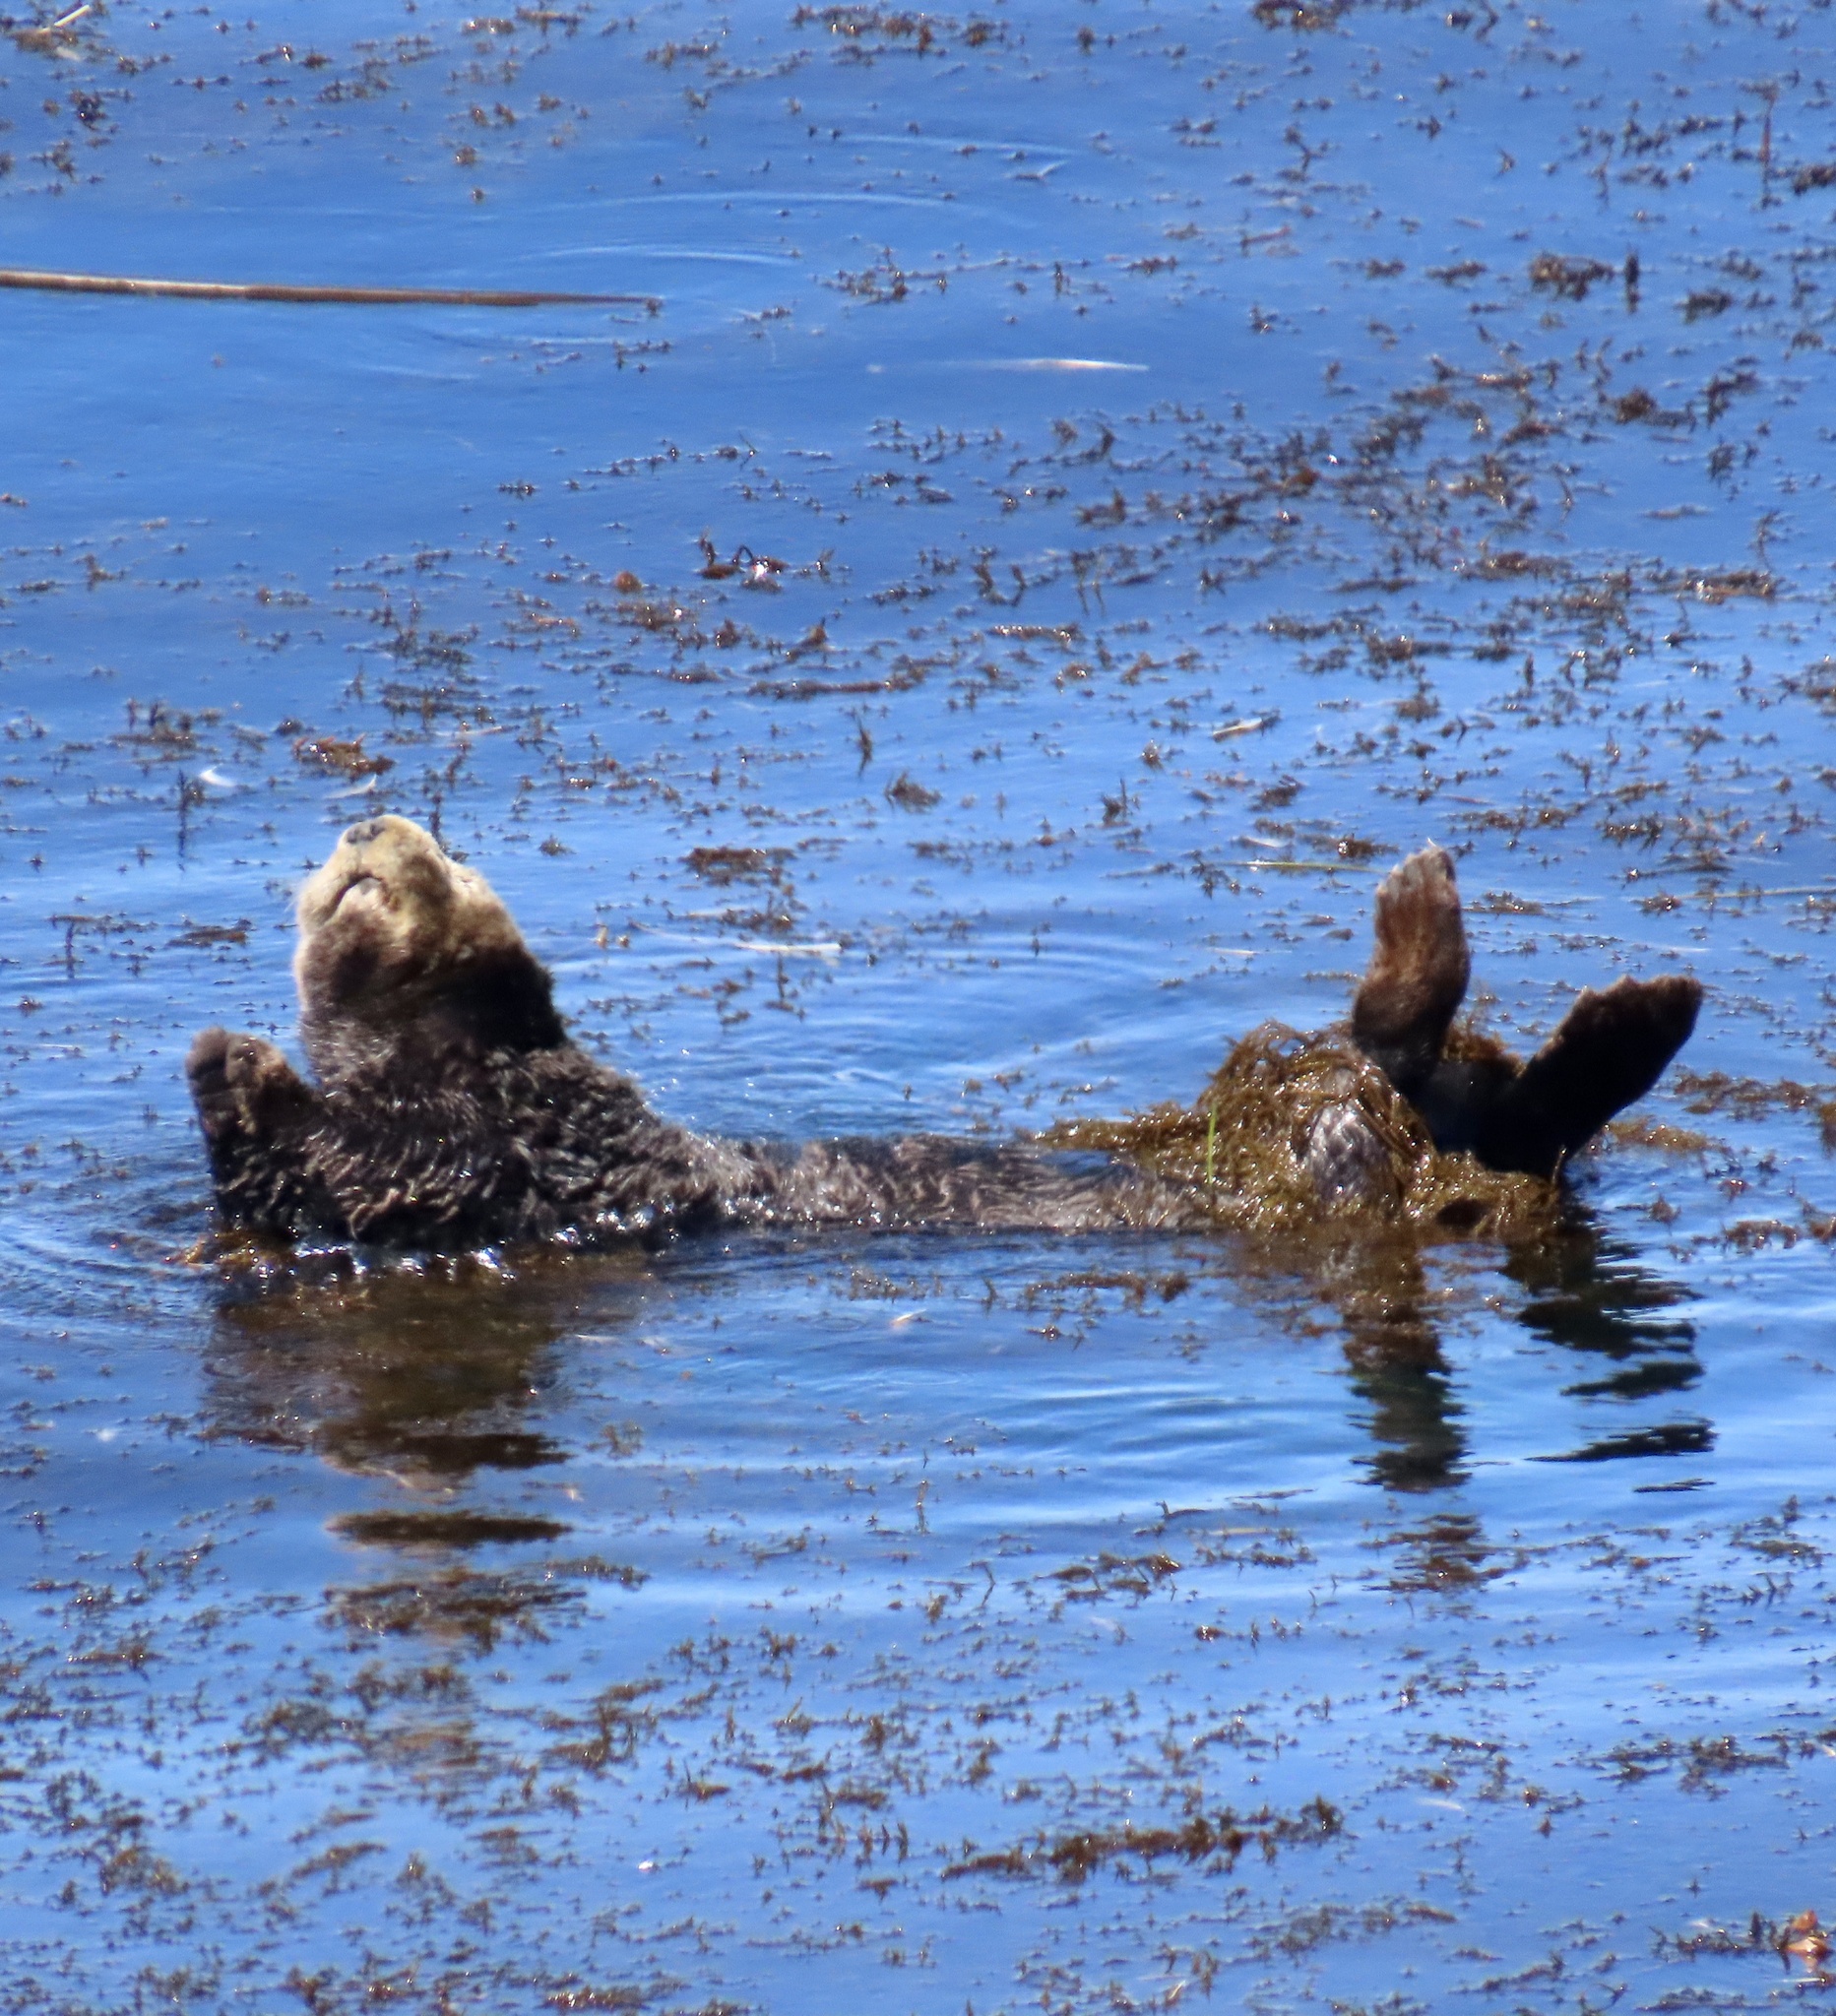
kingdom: Animalia
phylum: Chordata
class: Mammalia
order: Carnivora
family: Mustelidae
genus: Enhydra
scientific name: Enhydra lutris
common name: Sea otter
